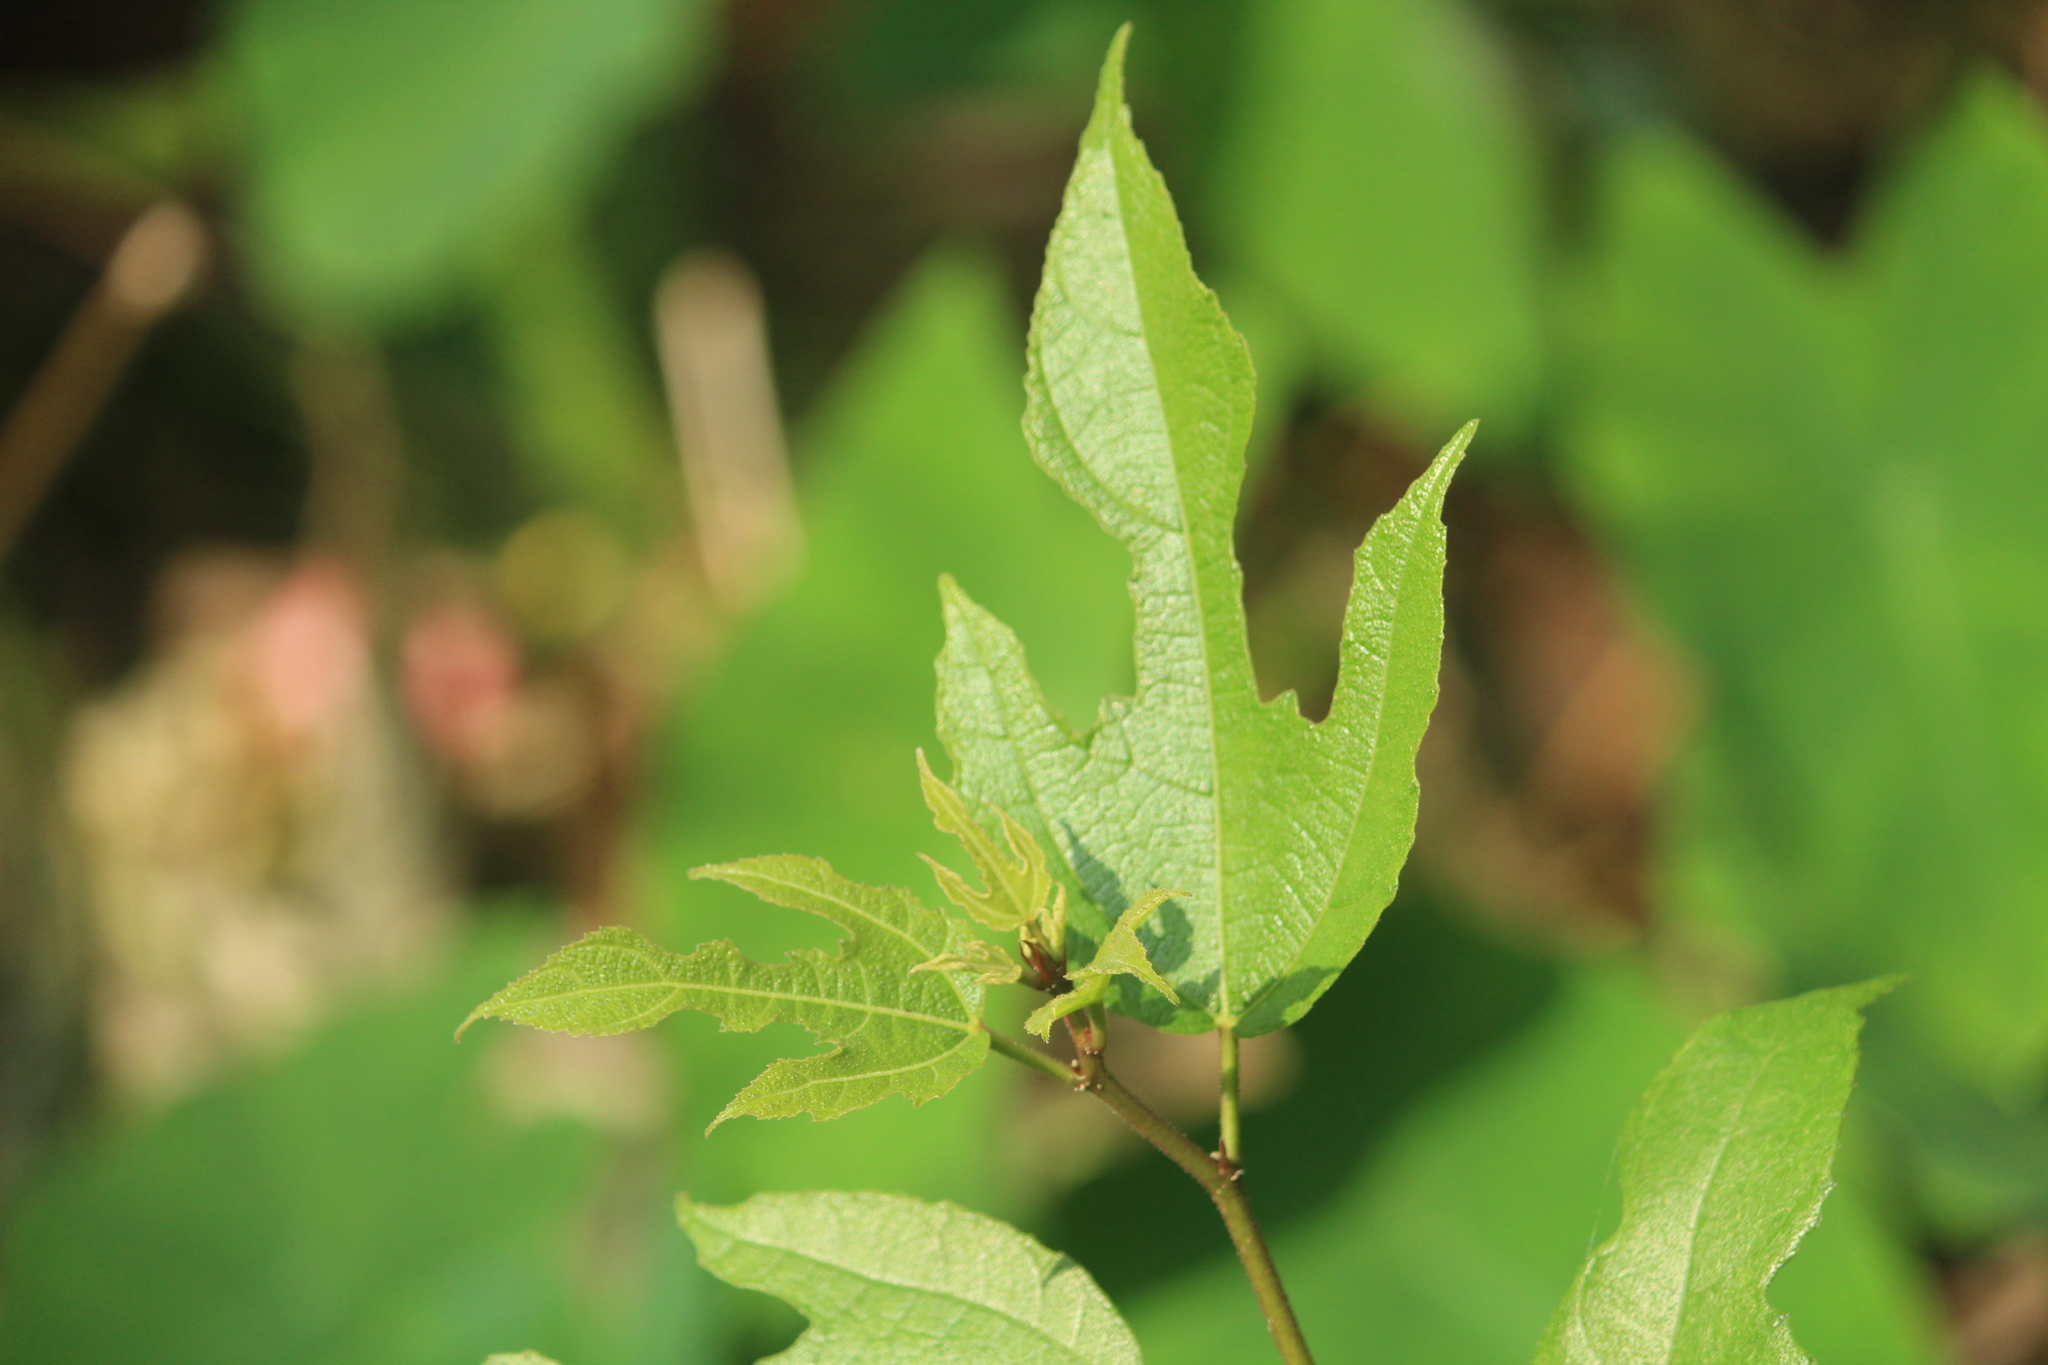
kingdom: Plantae
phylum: Tracheophyta
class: Magnoliopsida
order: Rosales
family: Moraceae
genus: Ficus
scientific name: Ficus exasperata
